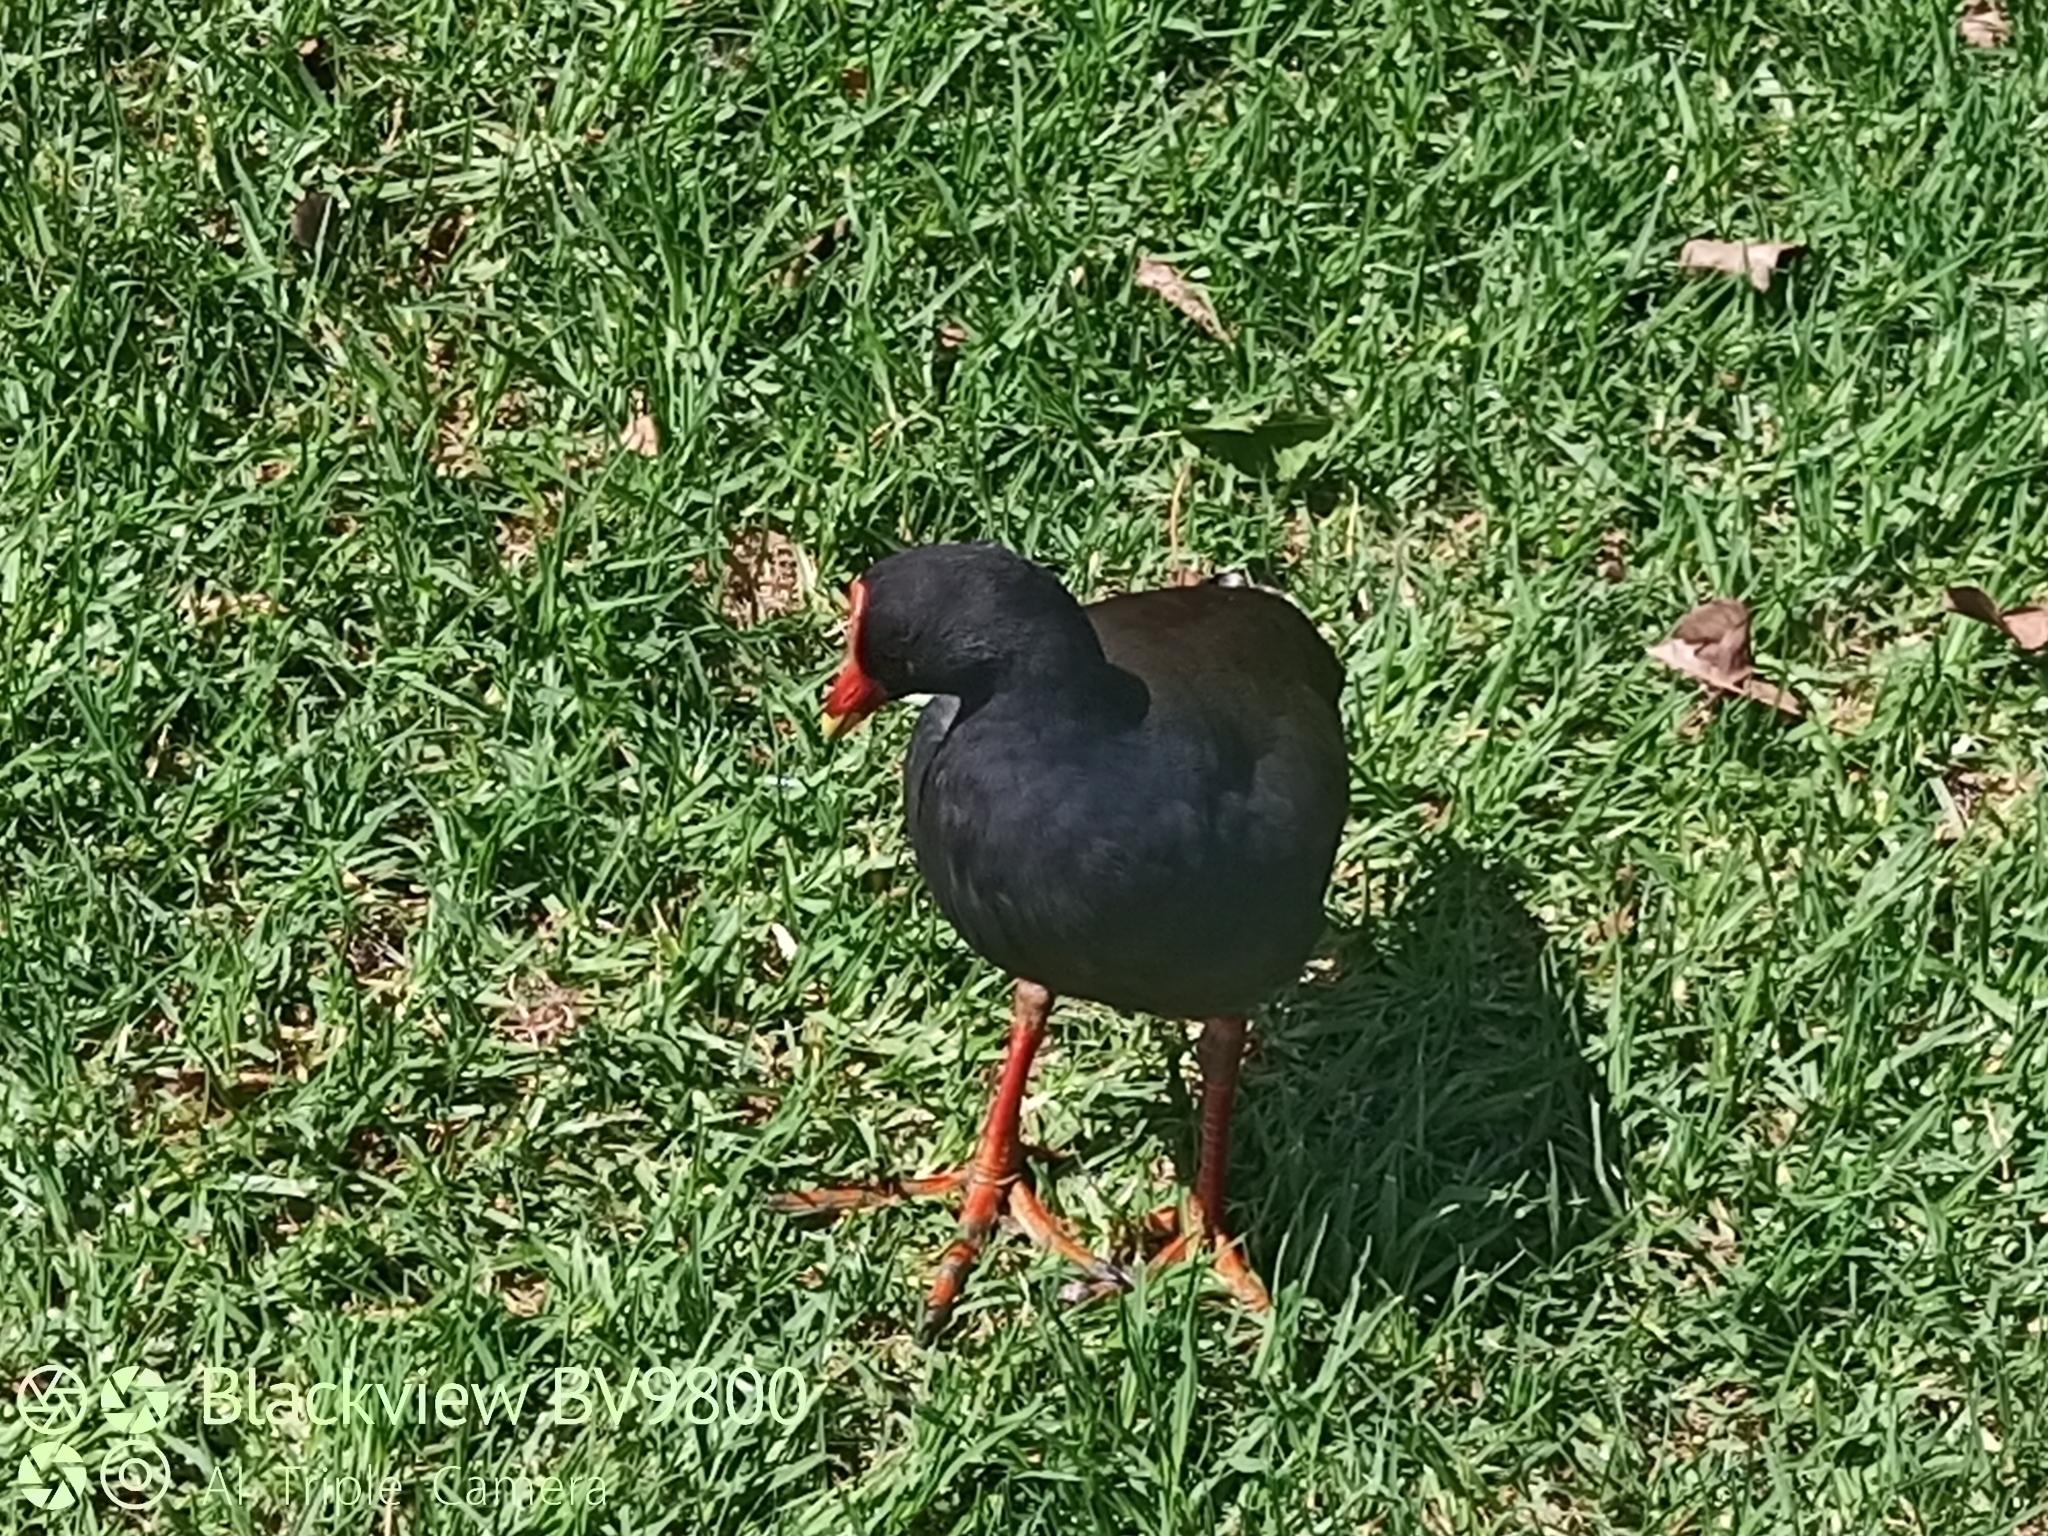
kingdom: Animalia
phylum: Chordata
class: Aves
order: Gruiformes
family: Rallidae
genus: Gallinula
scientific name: Gallinula tenebrosa
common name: Dusky moorhen
